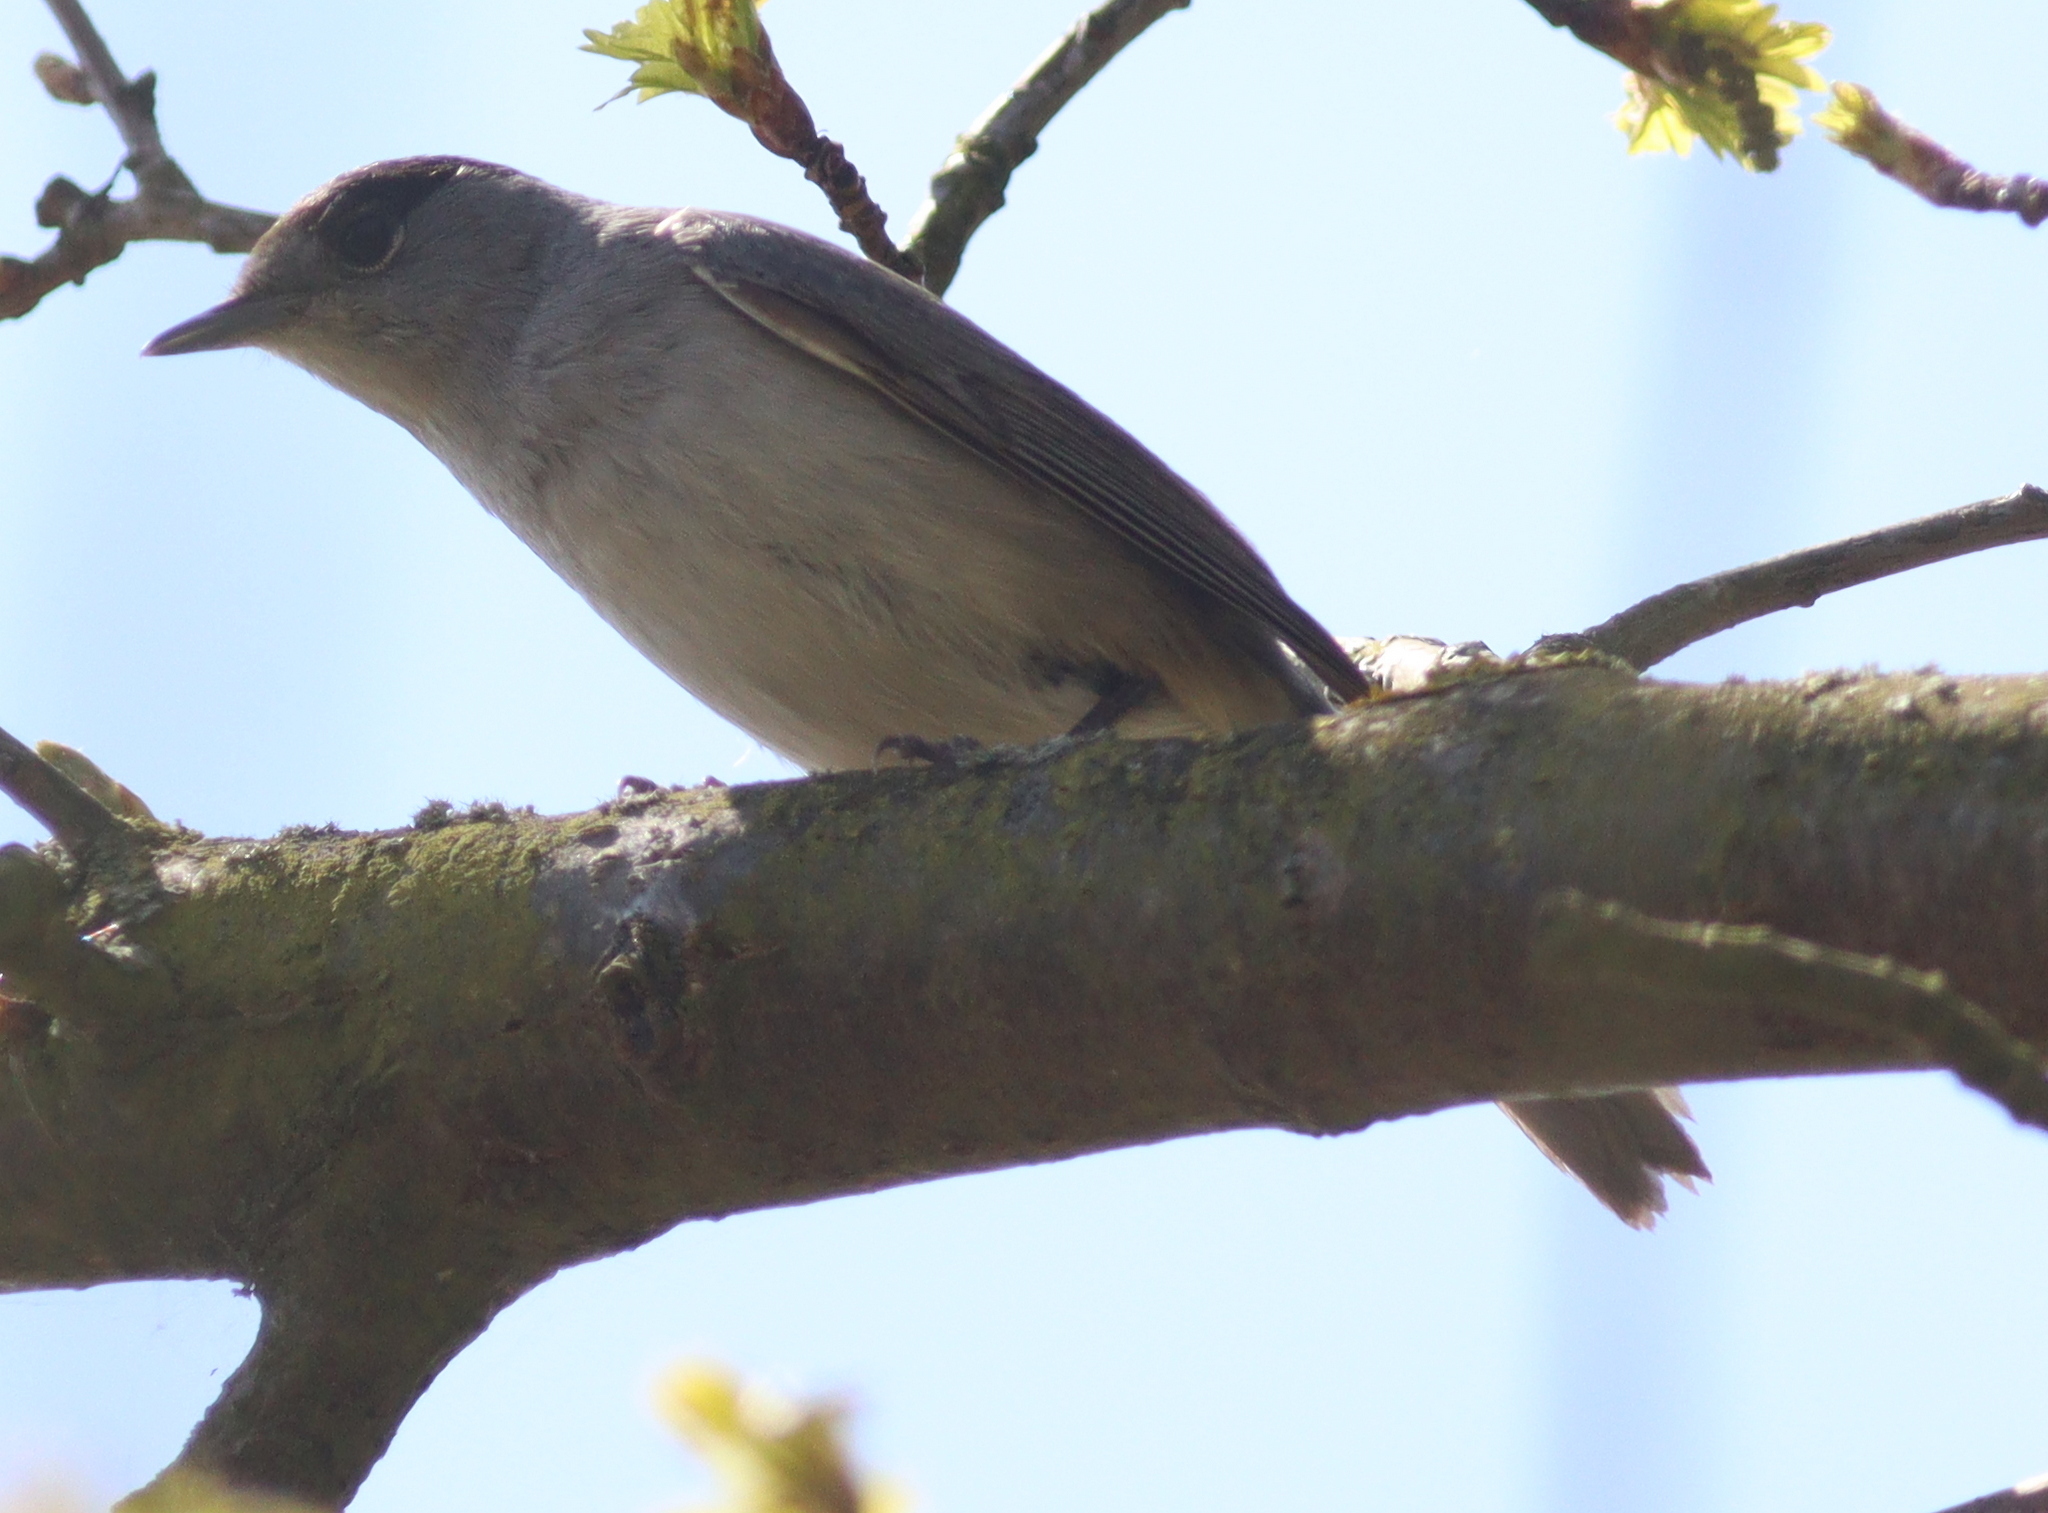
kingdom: Animalia
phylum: Chordata
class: Aves
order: Passeriformes
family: Sylviidae
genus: Sylvia
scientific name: Sylvia atricapilla
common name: Eurasian blackcap
